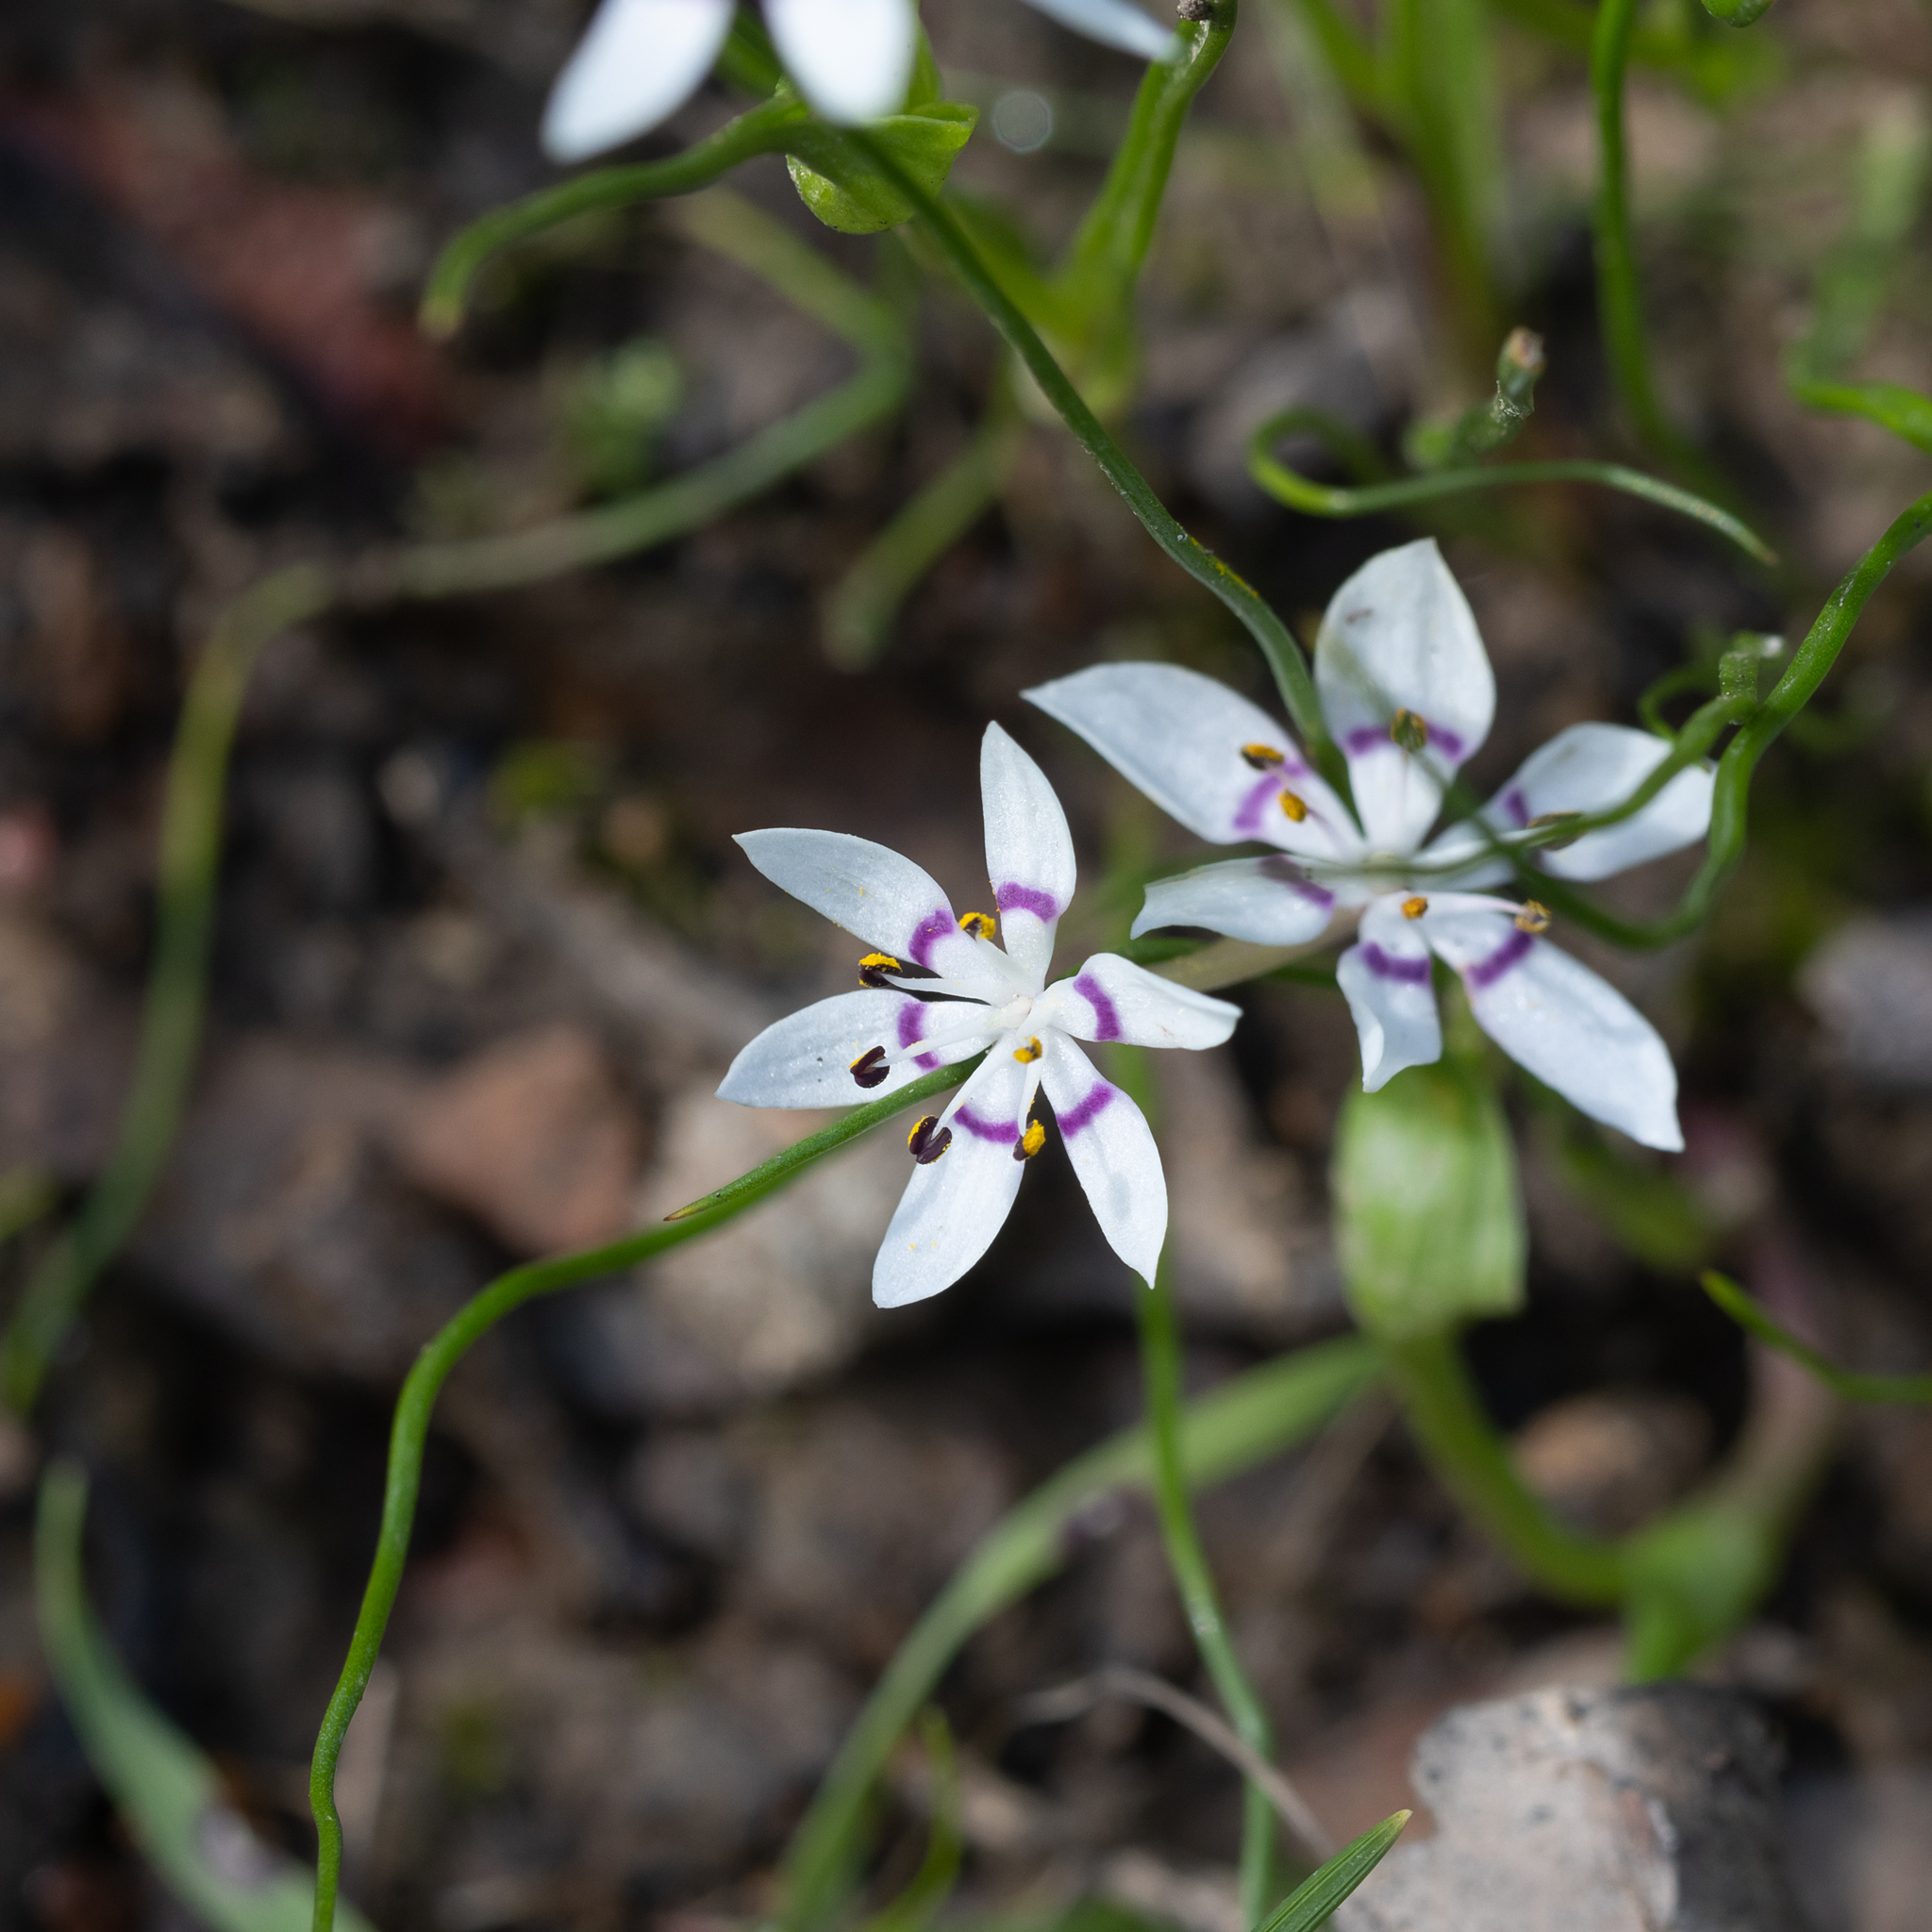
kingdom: Plantae
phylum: Tracheophyta
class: Liliopsida
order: Liliales
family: Colchicaceae
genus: Wurmbea
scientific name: Wurmbea dioica
